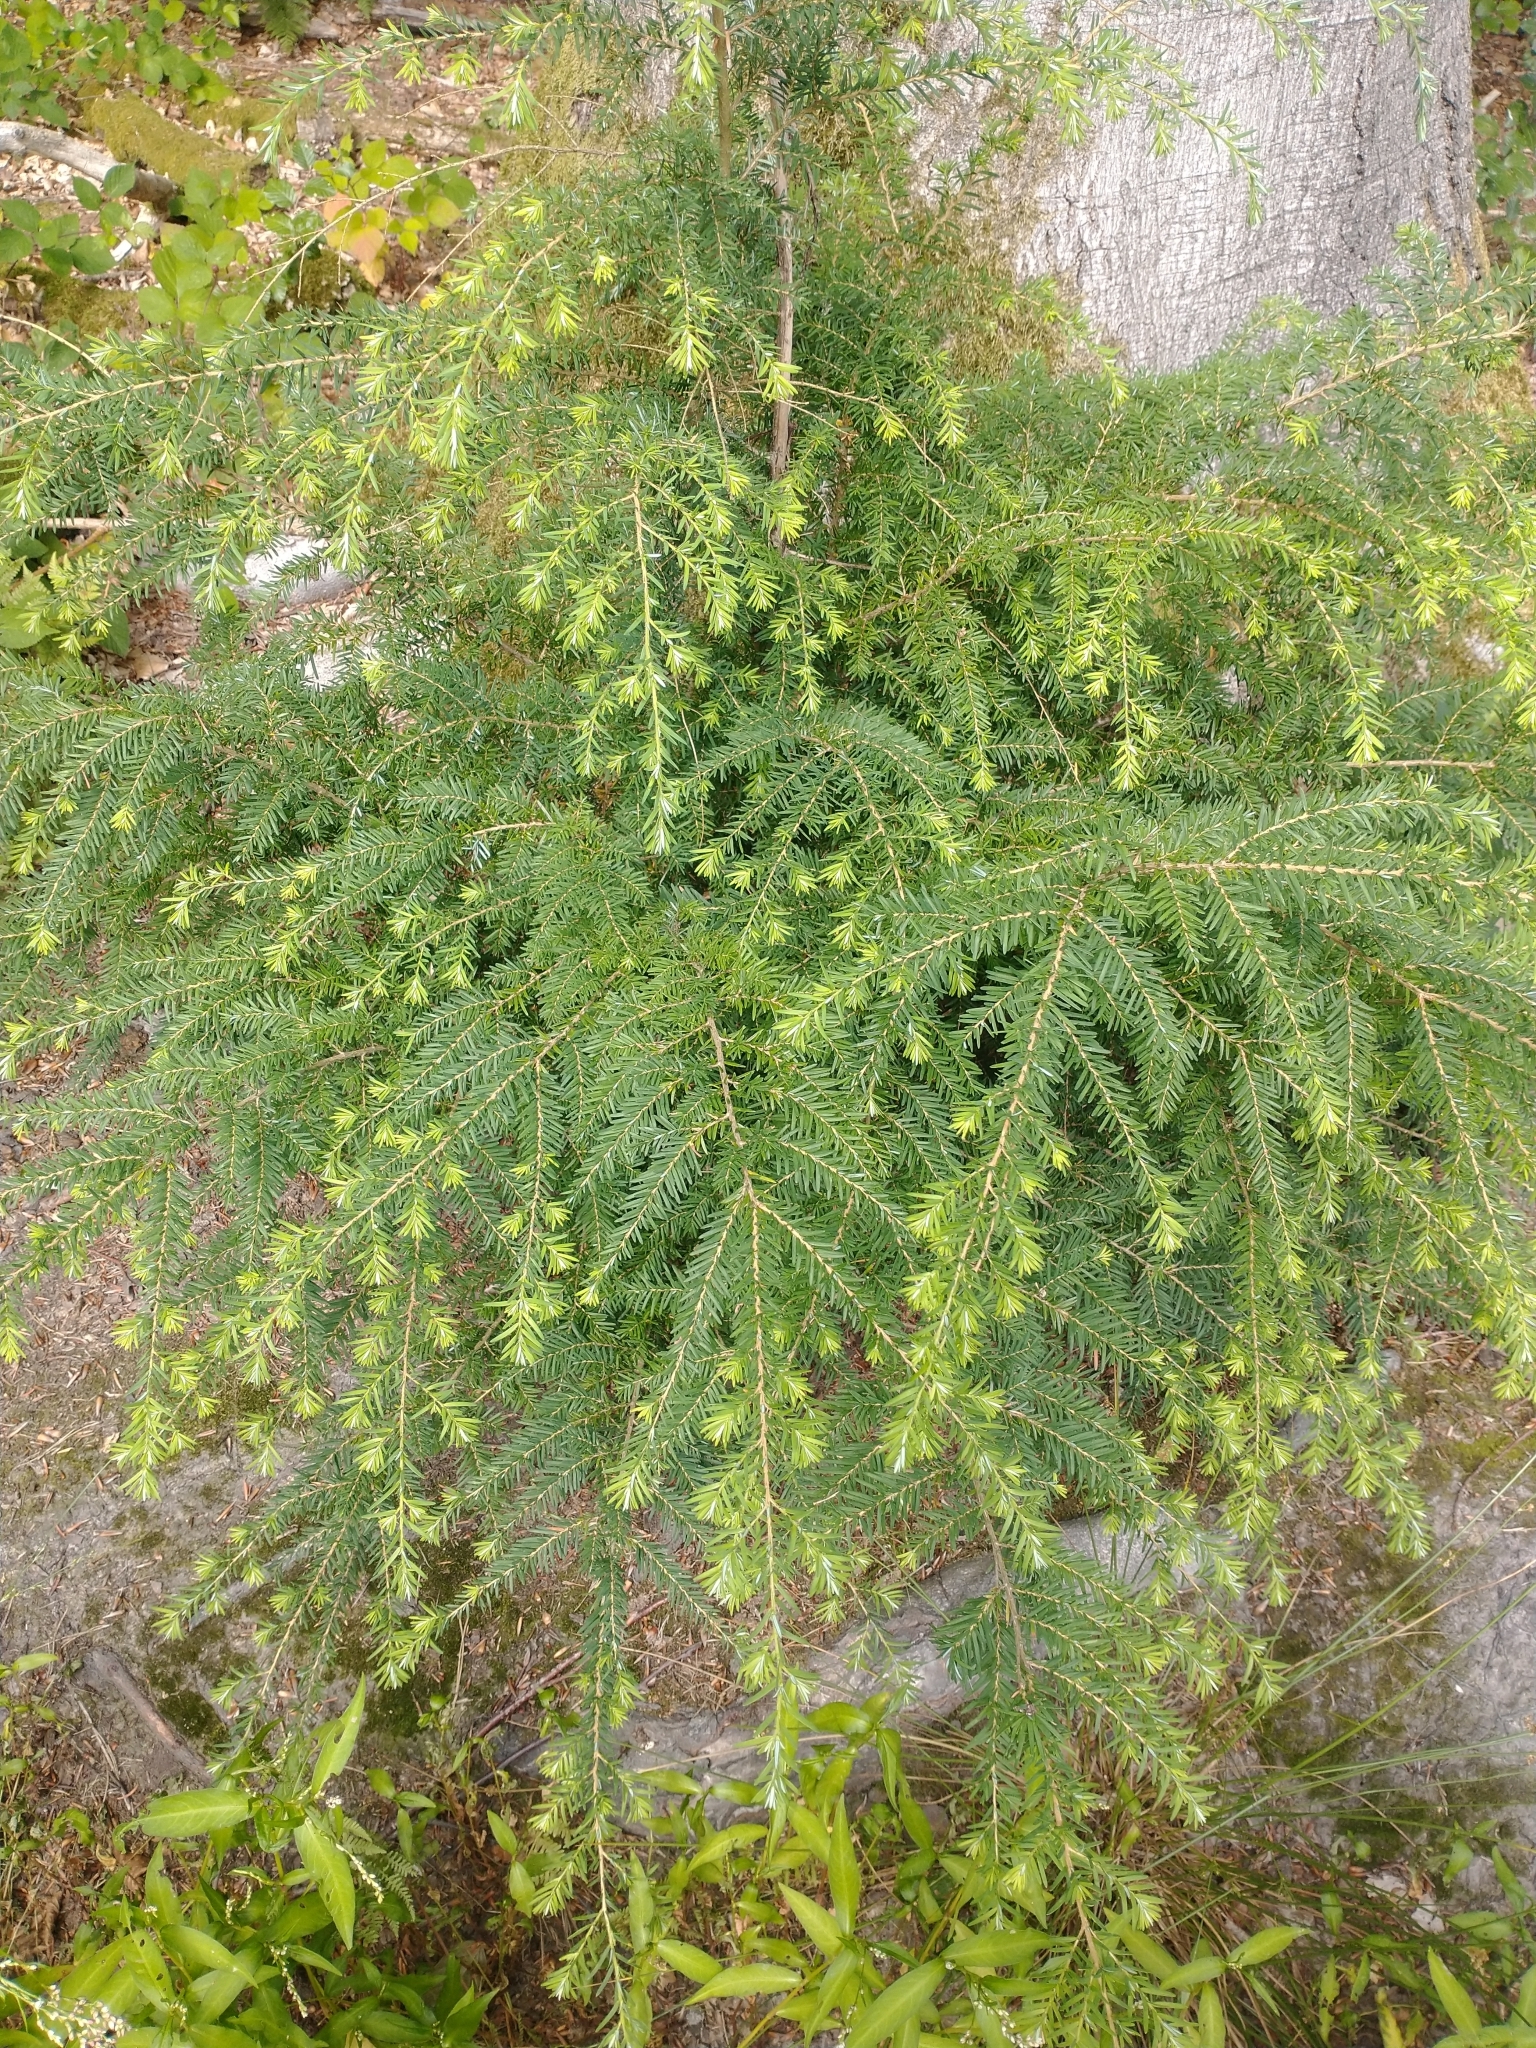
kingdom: Plantae
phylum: Tracheophyta
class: Pinopsida
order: Pinales
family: Pinaceae
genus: Tsuga
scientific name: Tsuga heterophylla
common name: Western hemlock
